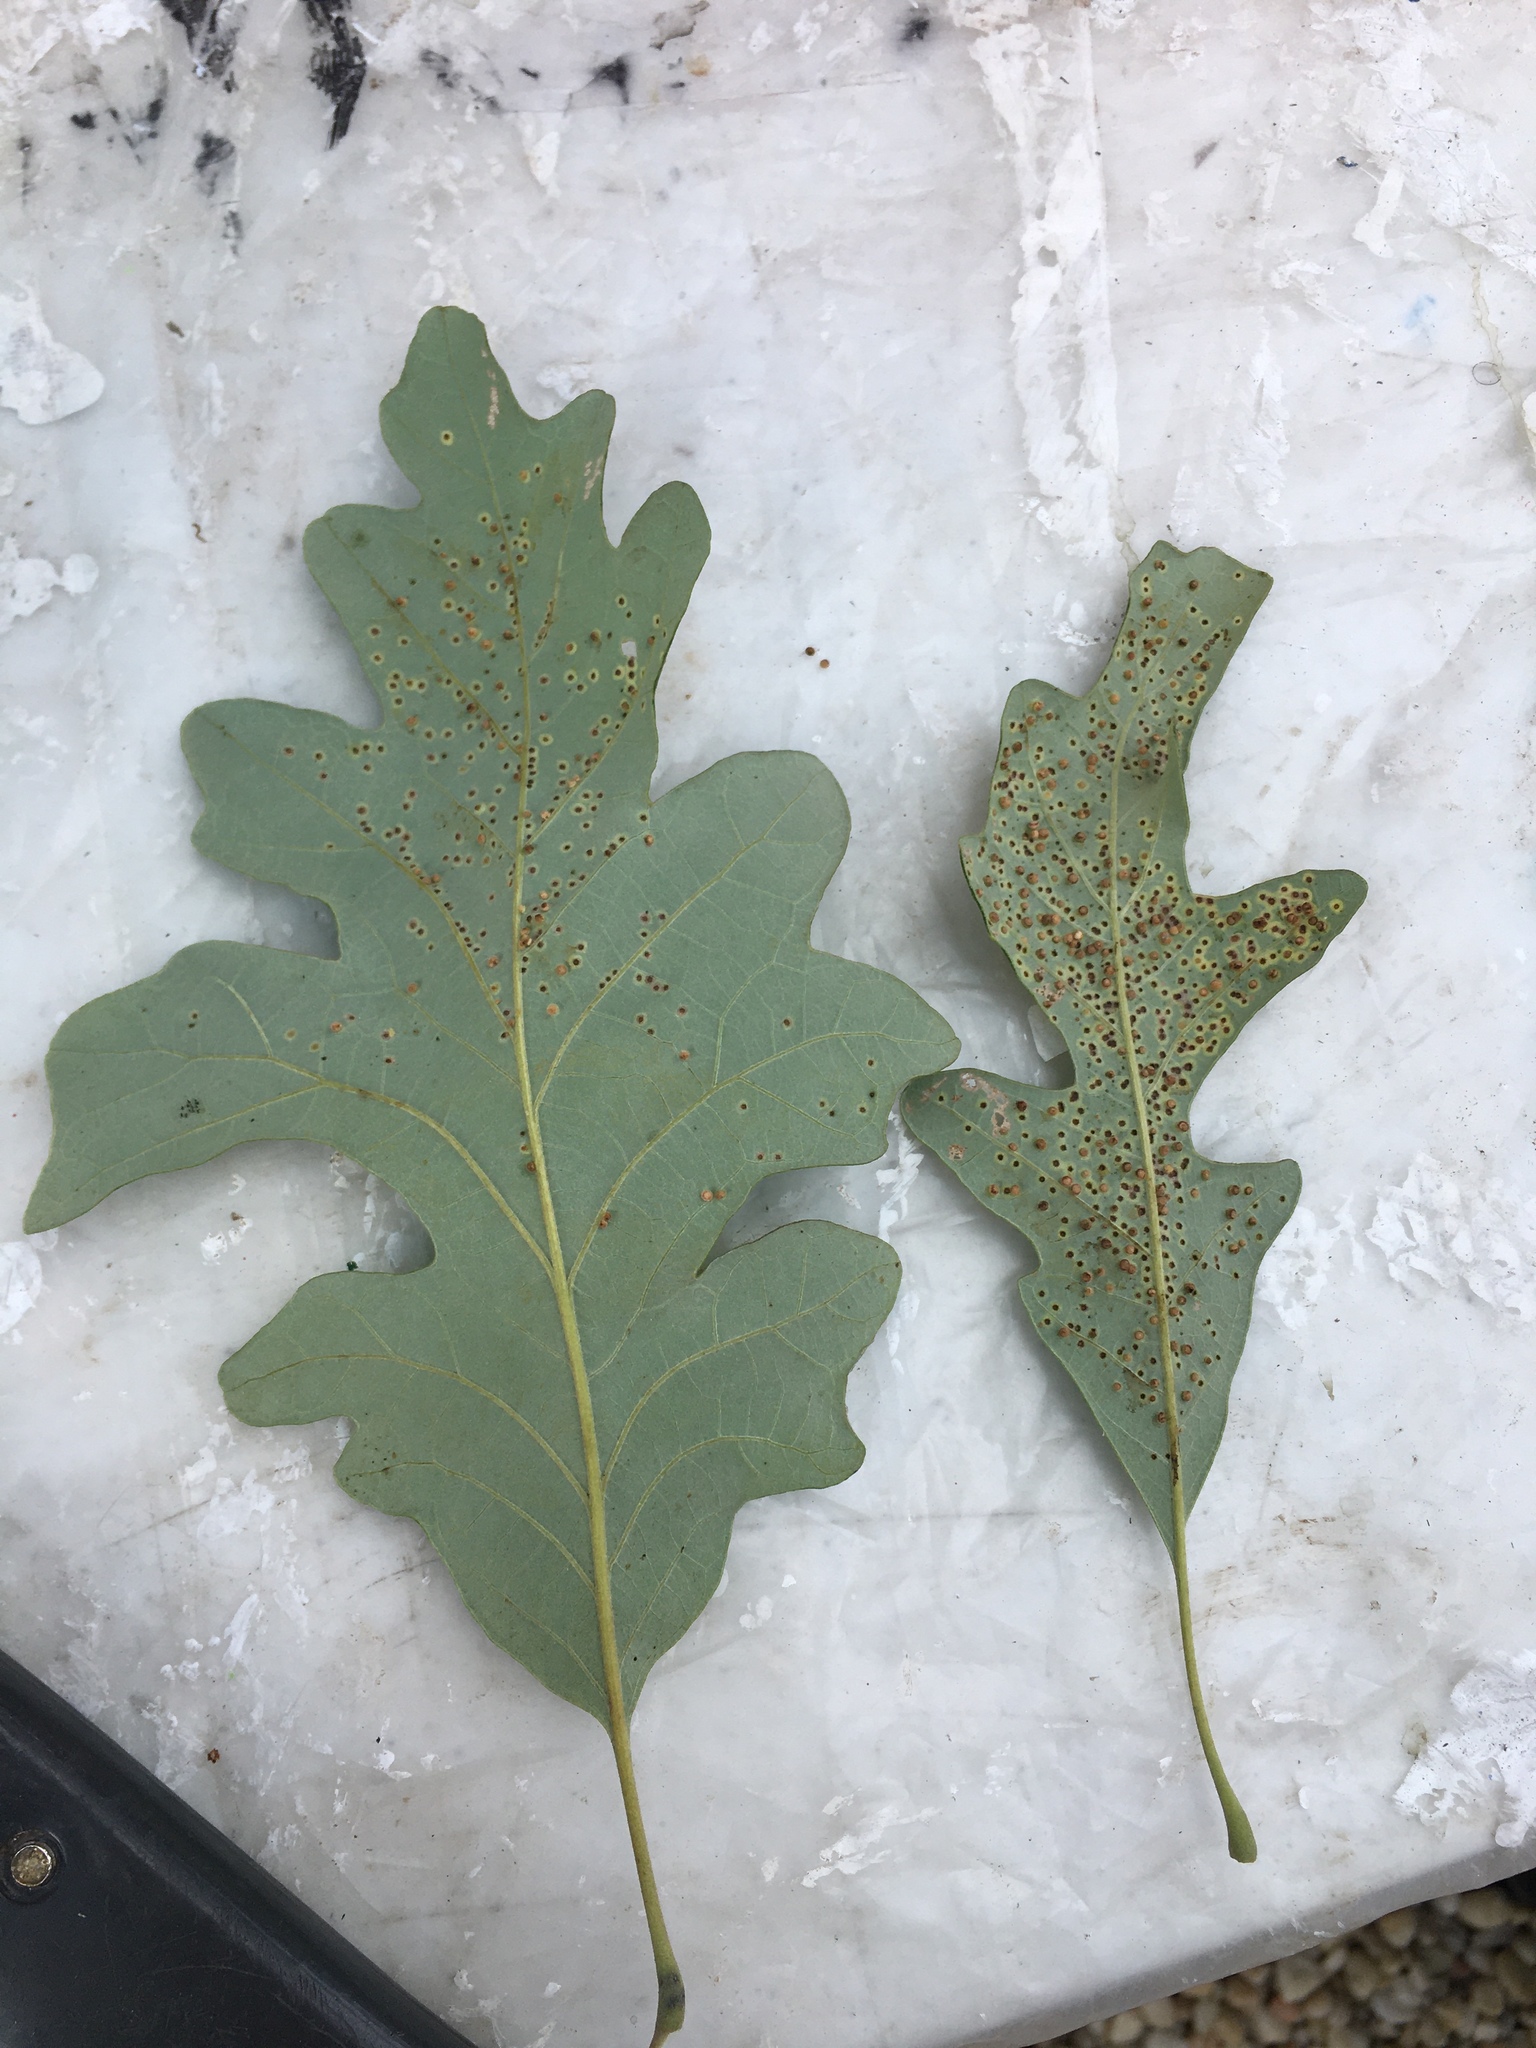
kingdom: Animalia
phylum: Arthropoda
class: Insecta
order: Hymenoptera
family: Cynipidae
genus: Neuroterus
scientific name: Neuroterus saltarius
